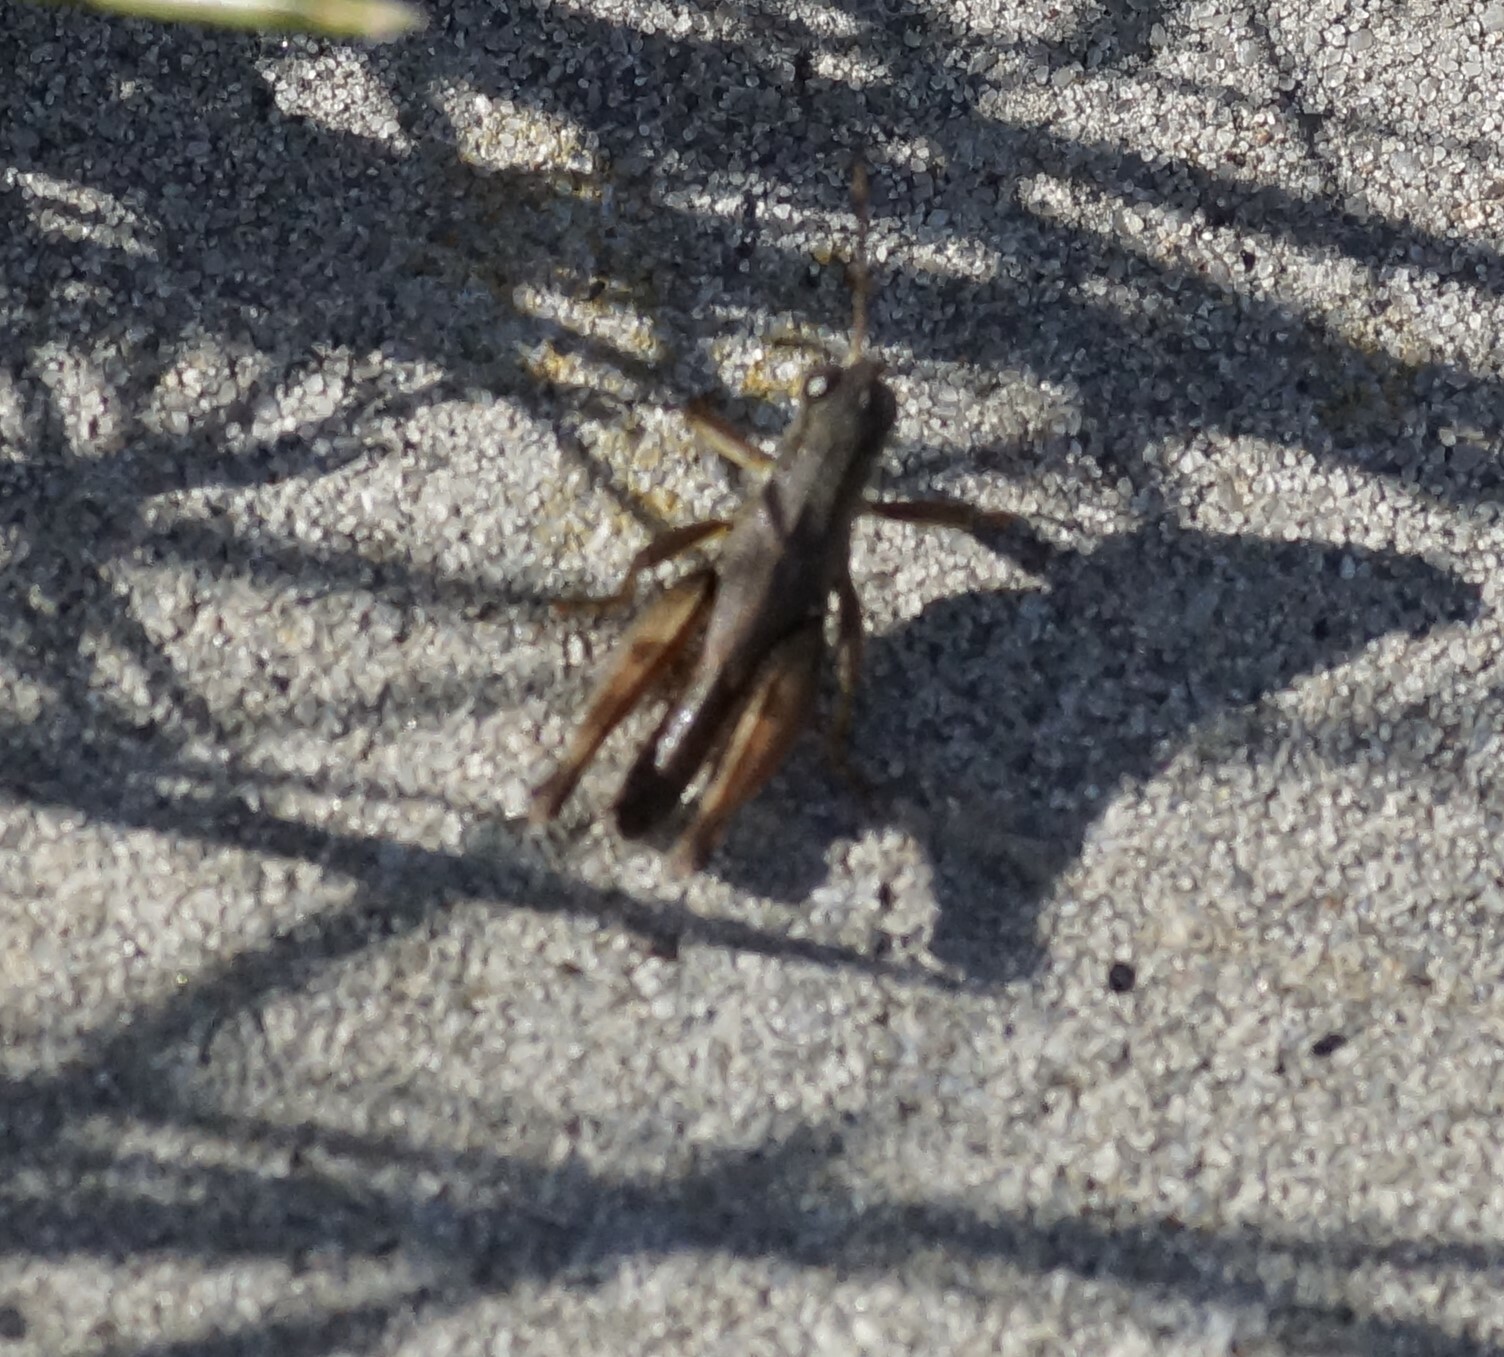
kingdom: Animalia
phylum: Arthropoda
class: Insecta
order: Orthoptera
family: Acrididae
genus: Phaulacridium
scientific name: Phaulacridium vittatum
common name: Wingless grasshopper
